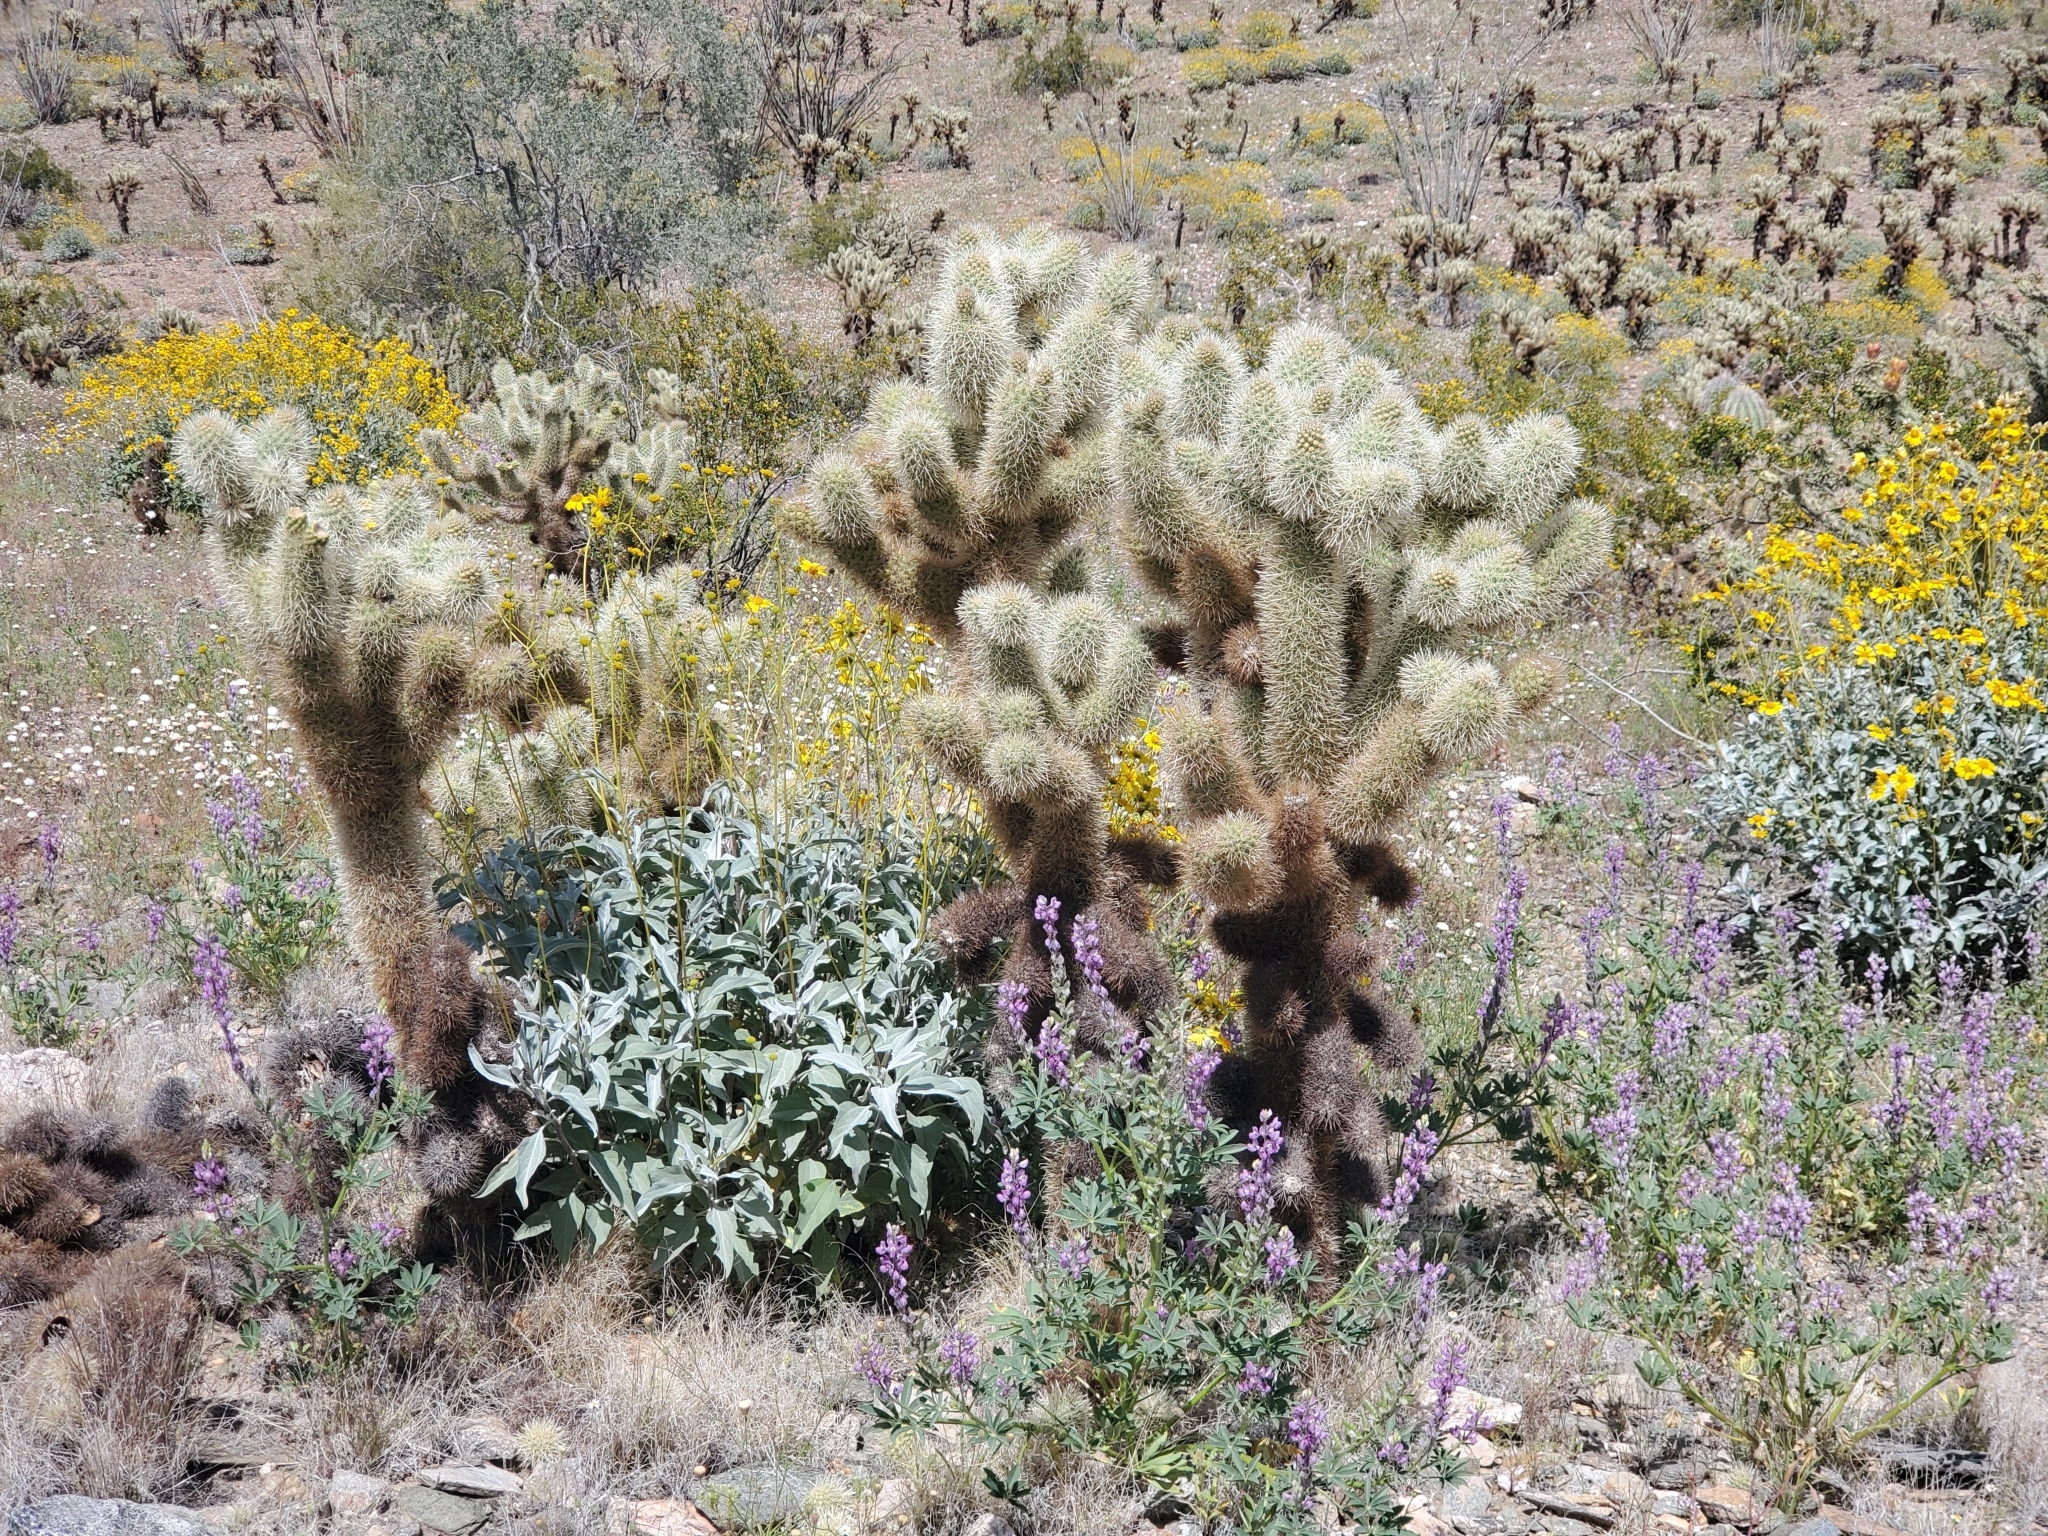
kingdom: Plantae
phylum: Tracheophyta
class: Magnoliopsida
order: Caryophyllales
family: Cactaceae
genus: Cylindropuntia
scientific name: Cylindropuntia fosbergii
